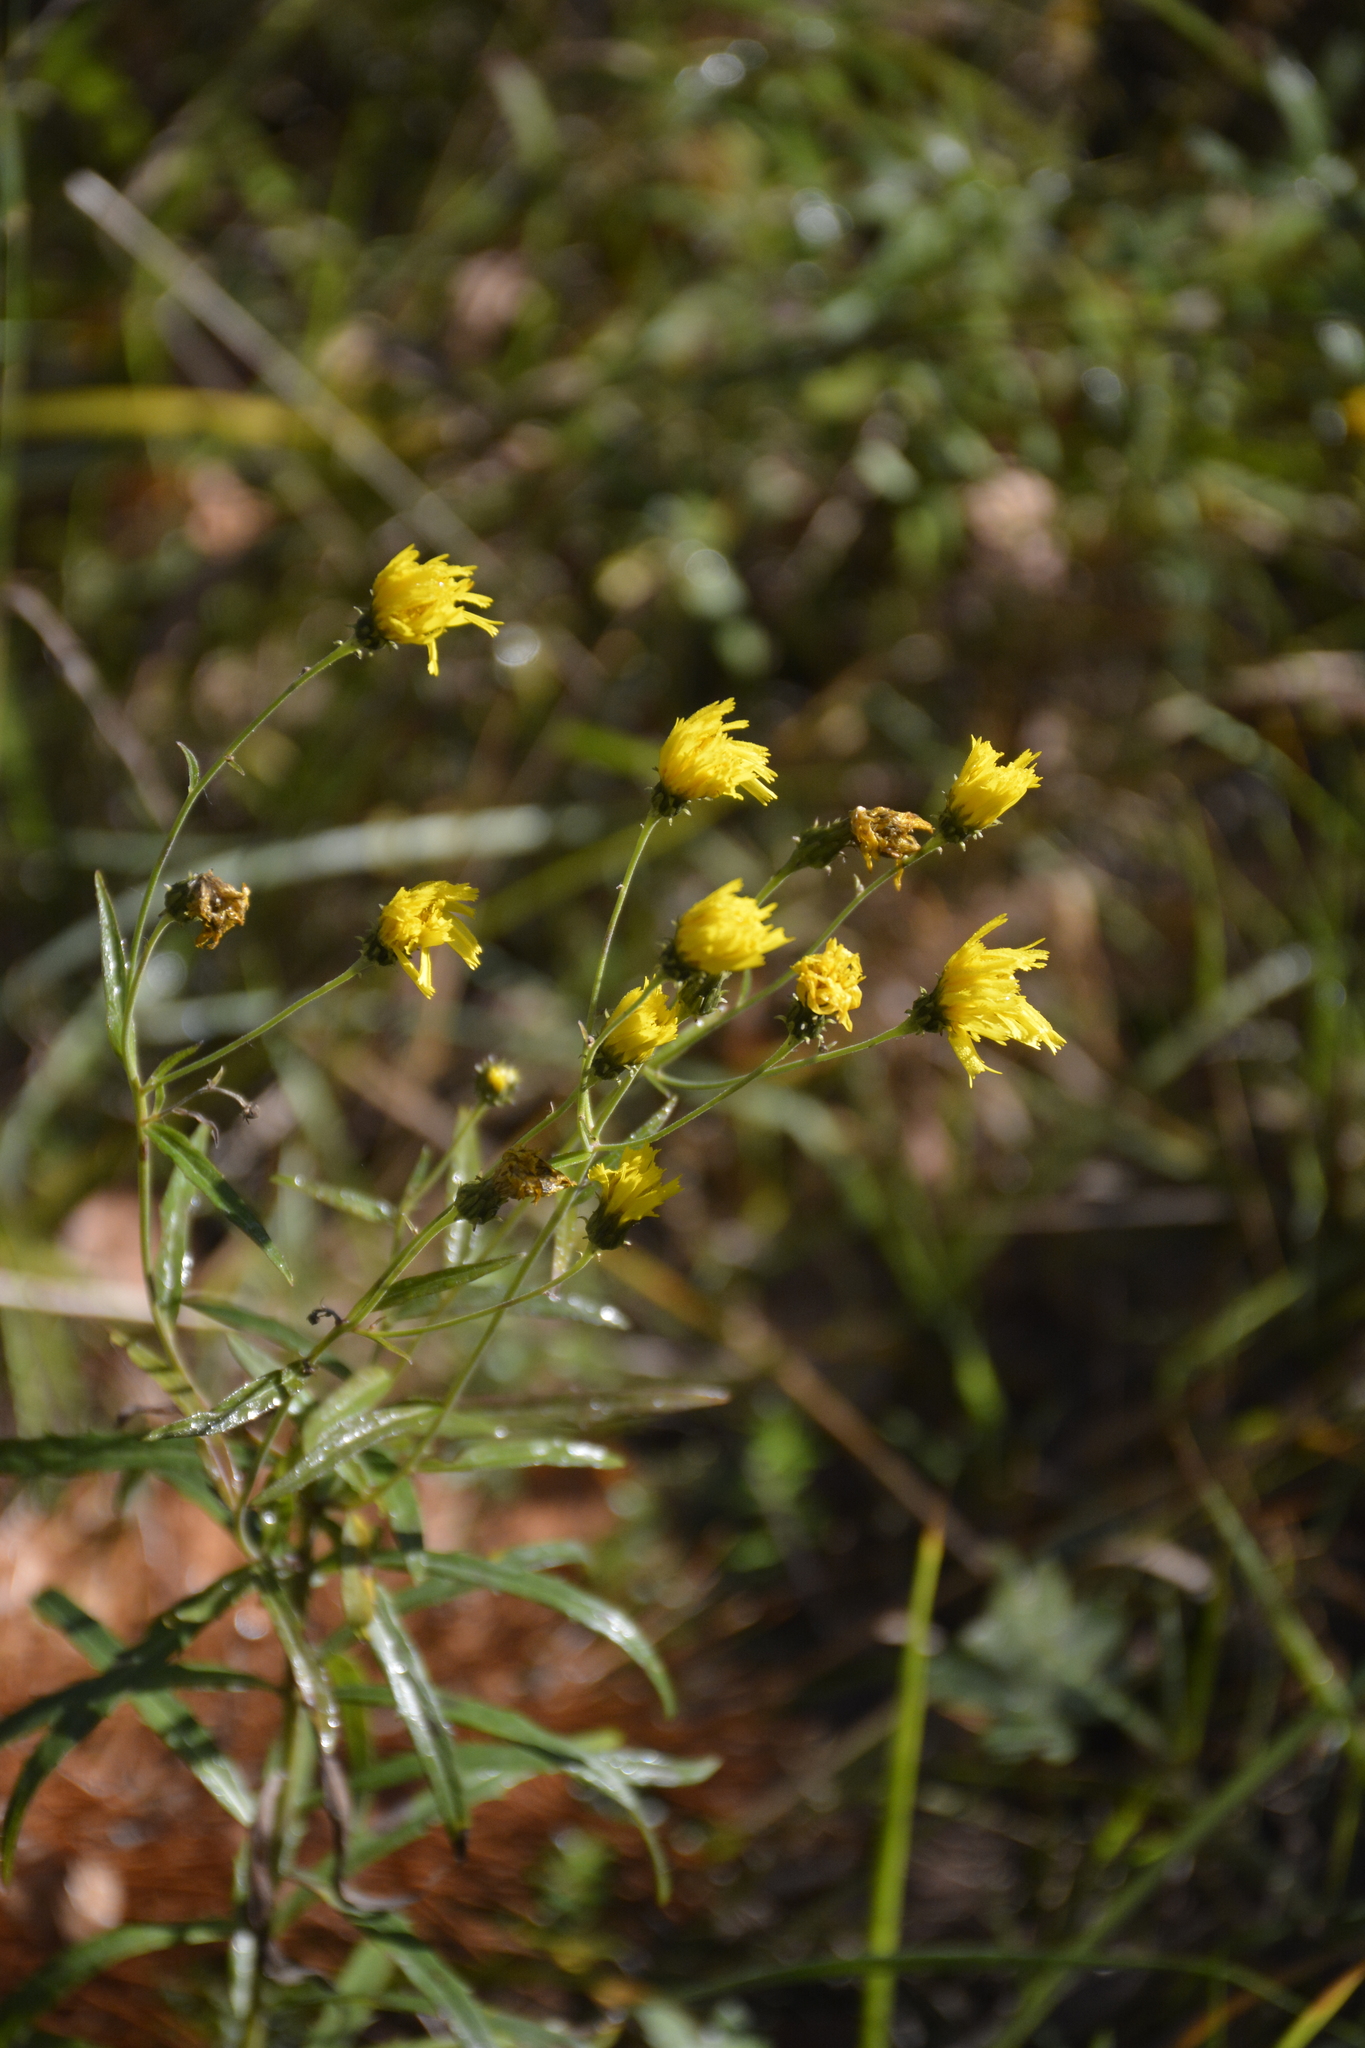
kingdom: Plantae
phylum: Tracheophyta
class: Magnoliopsida
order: Asterales
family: Asteraceae
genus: Hieracium
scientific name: Hieracium umbellatum
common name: Northern hawkweed
